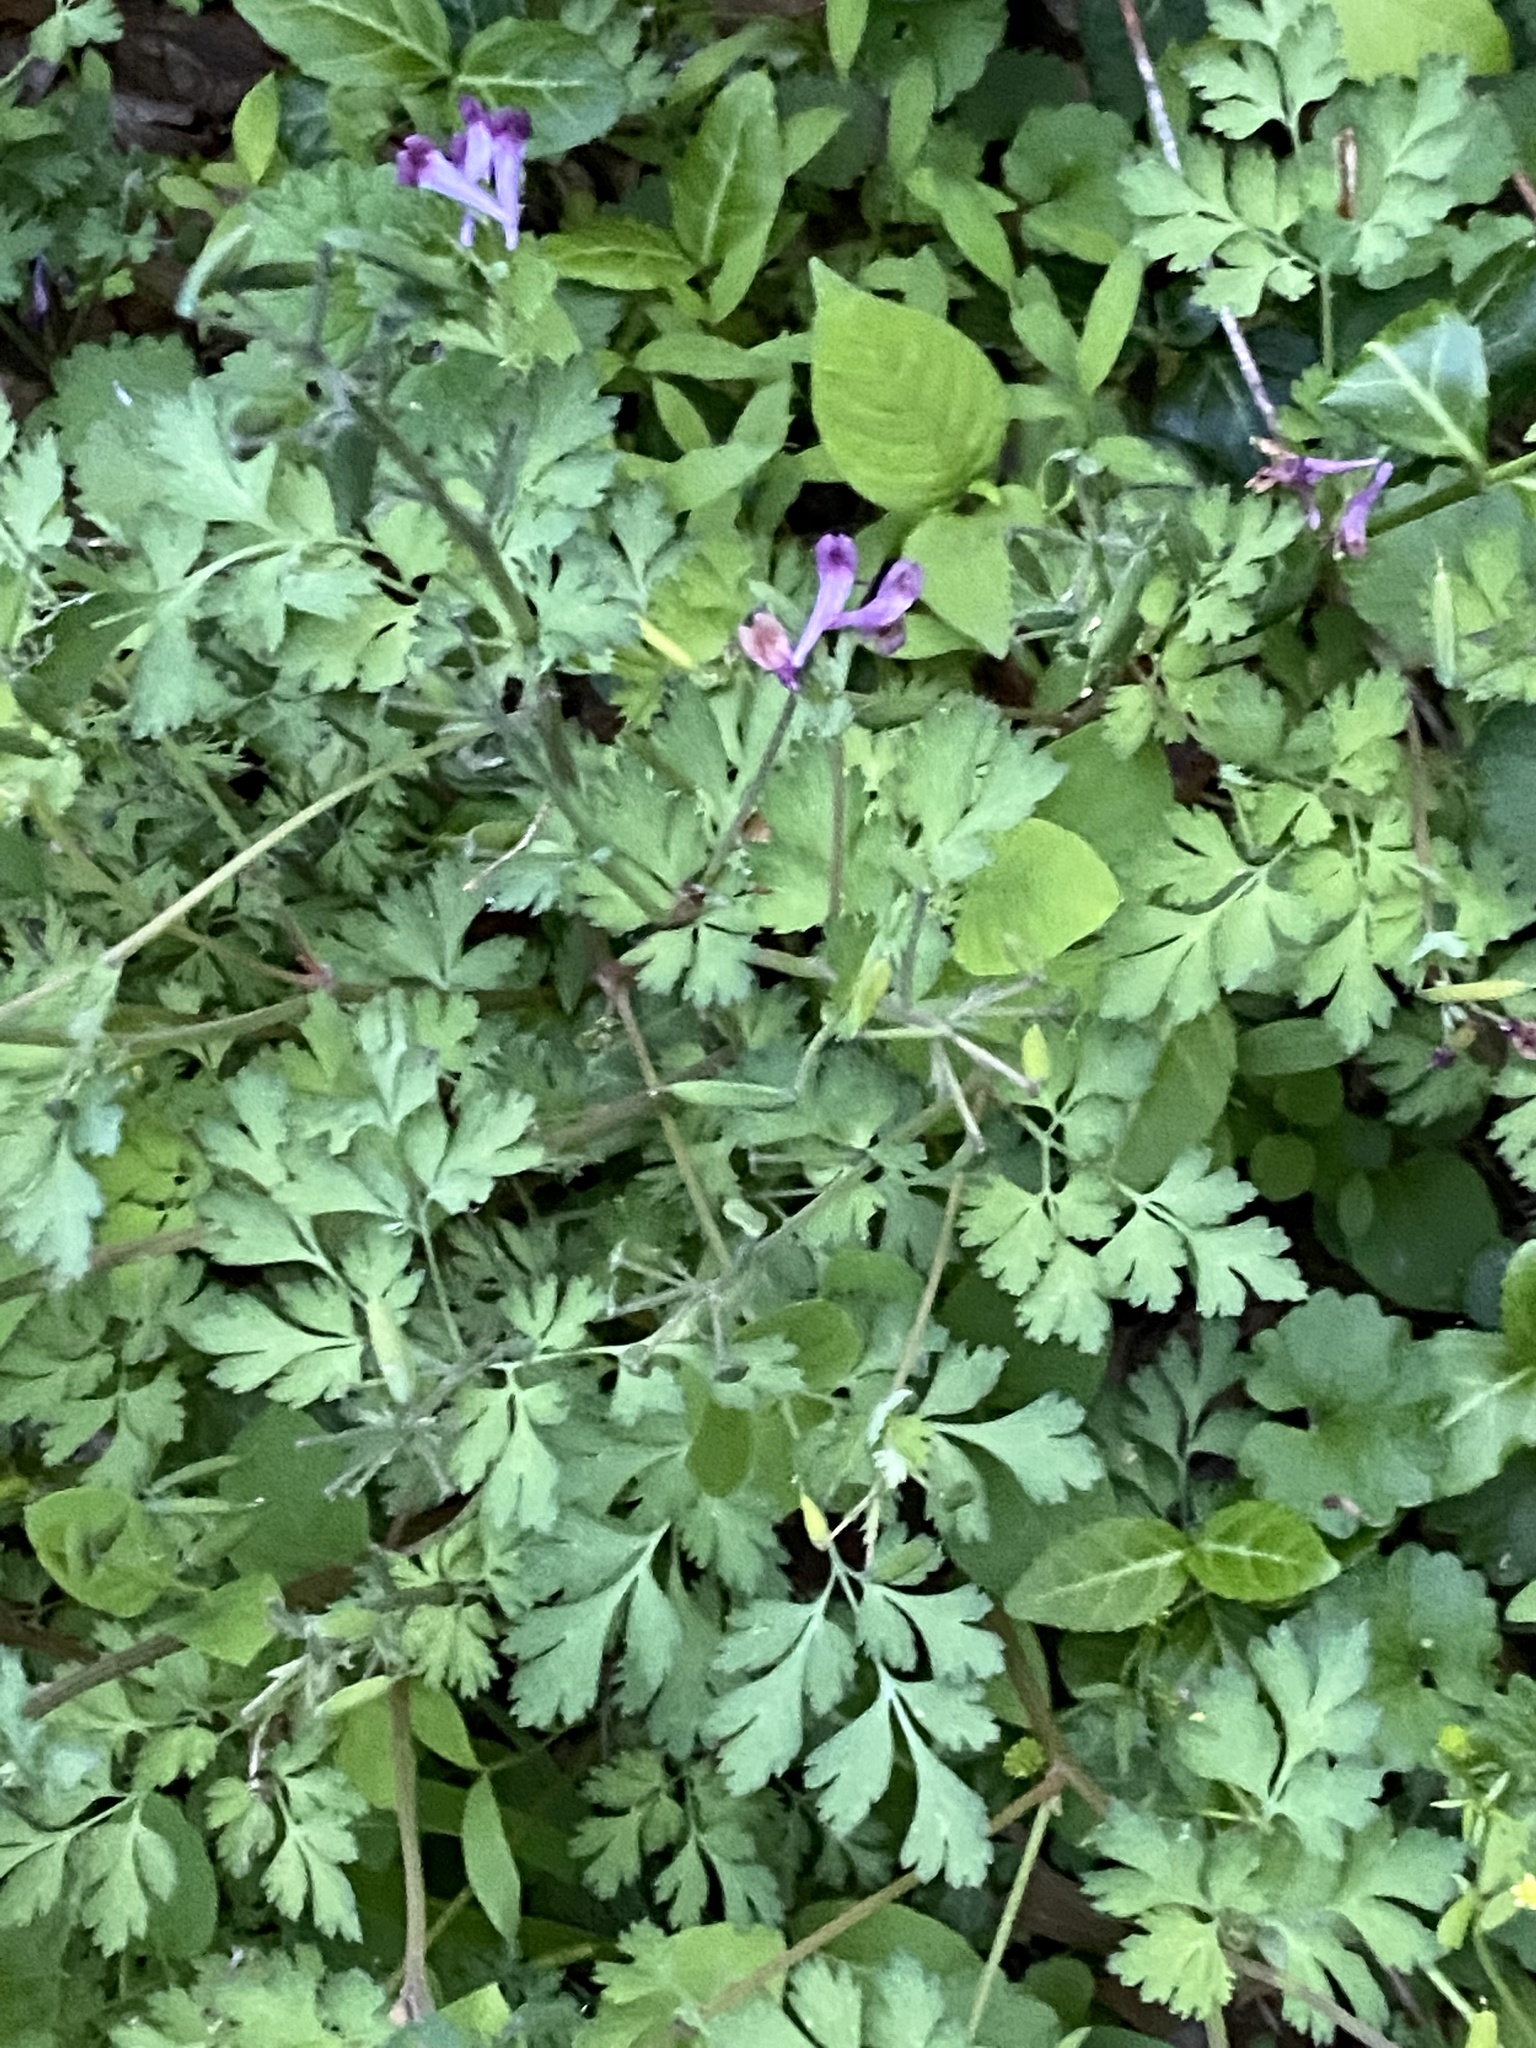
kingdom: Plantae
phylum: Tracheophyta
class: Magnoliopsida
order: Ranunculales
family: Papaveraceae
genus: Corydalis
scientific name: Corydalis incisa
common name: Incised fumewort
